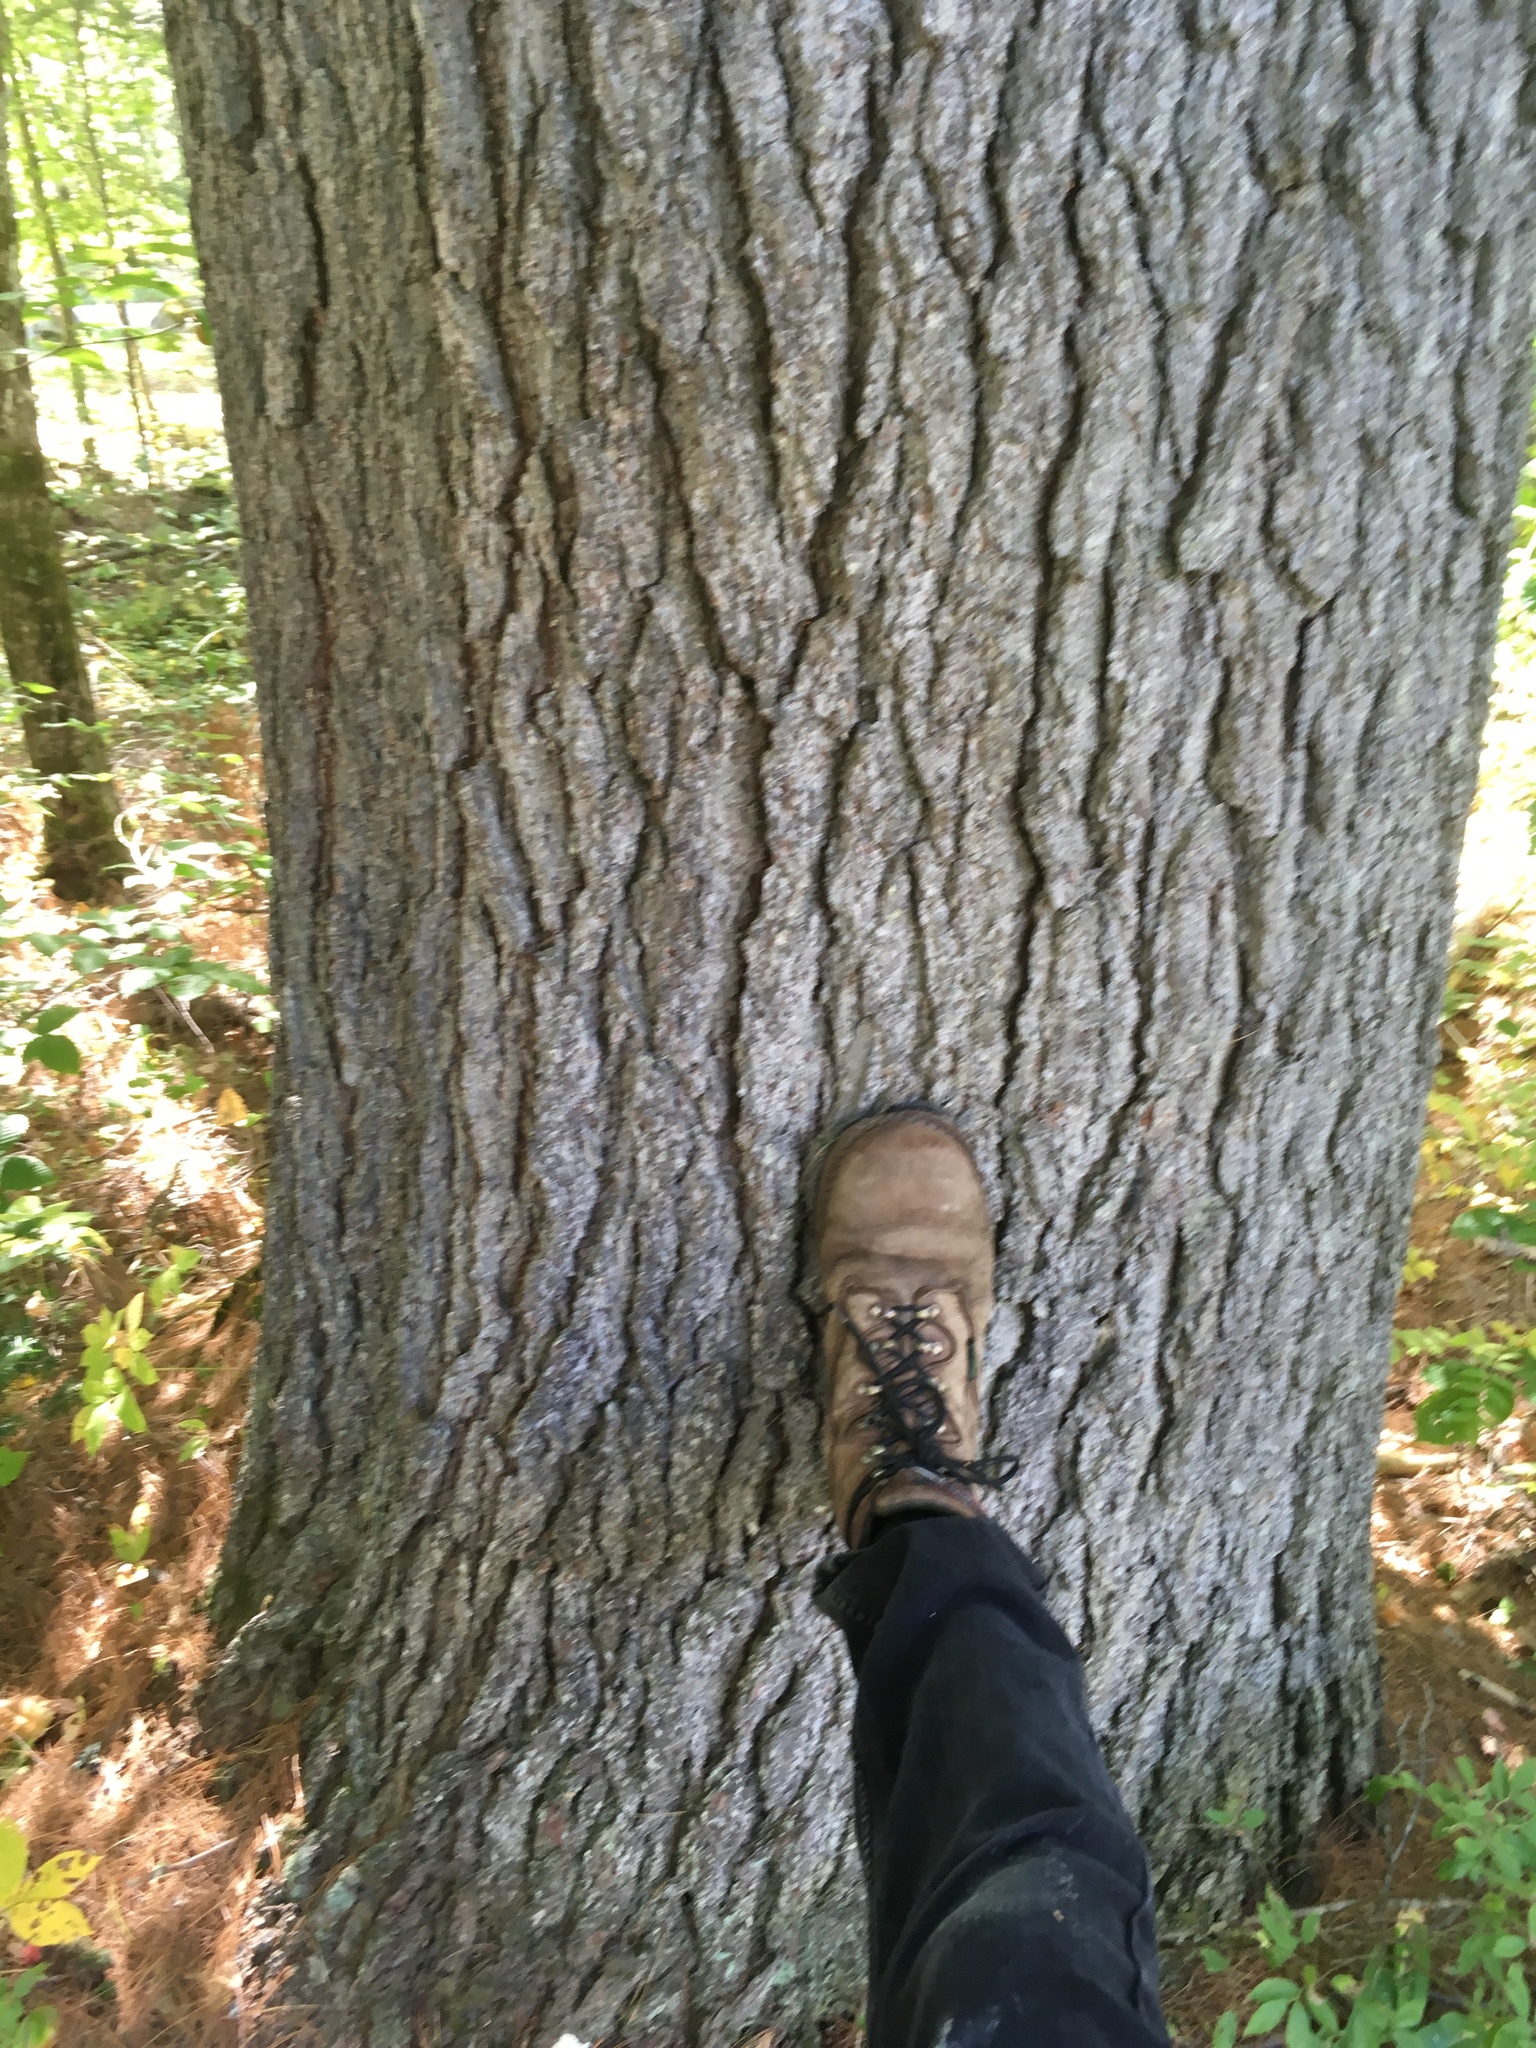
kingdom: Plantae
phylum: Tracheophyta
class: Pinopsida
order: Pinales
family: Pinaceae
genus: Pinus
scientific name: Pinus strobus
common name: Weymouth pine
